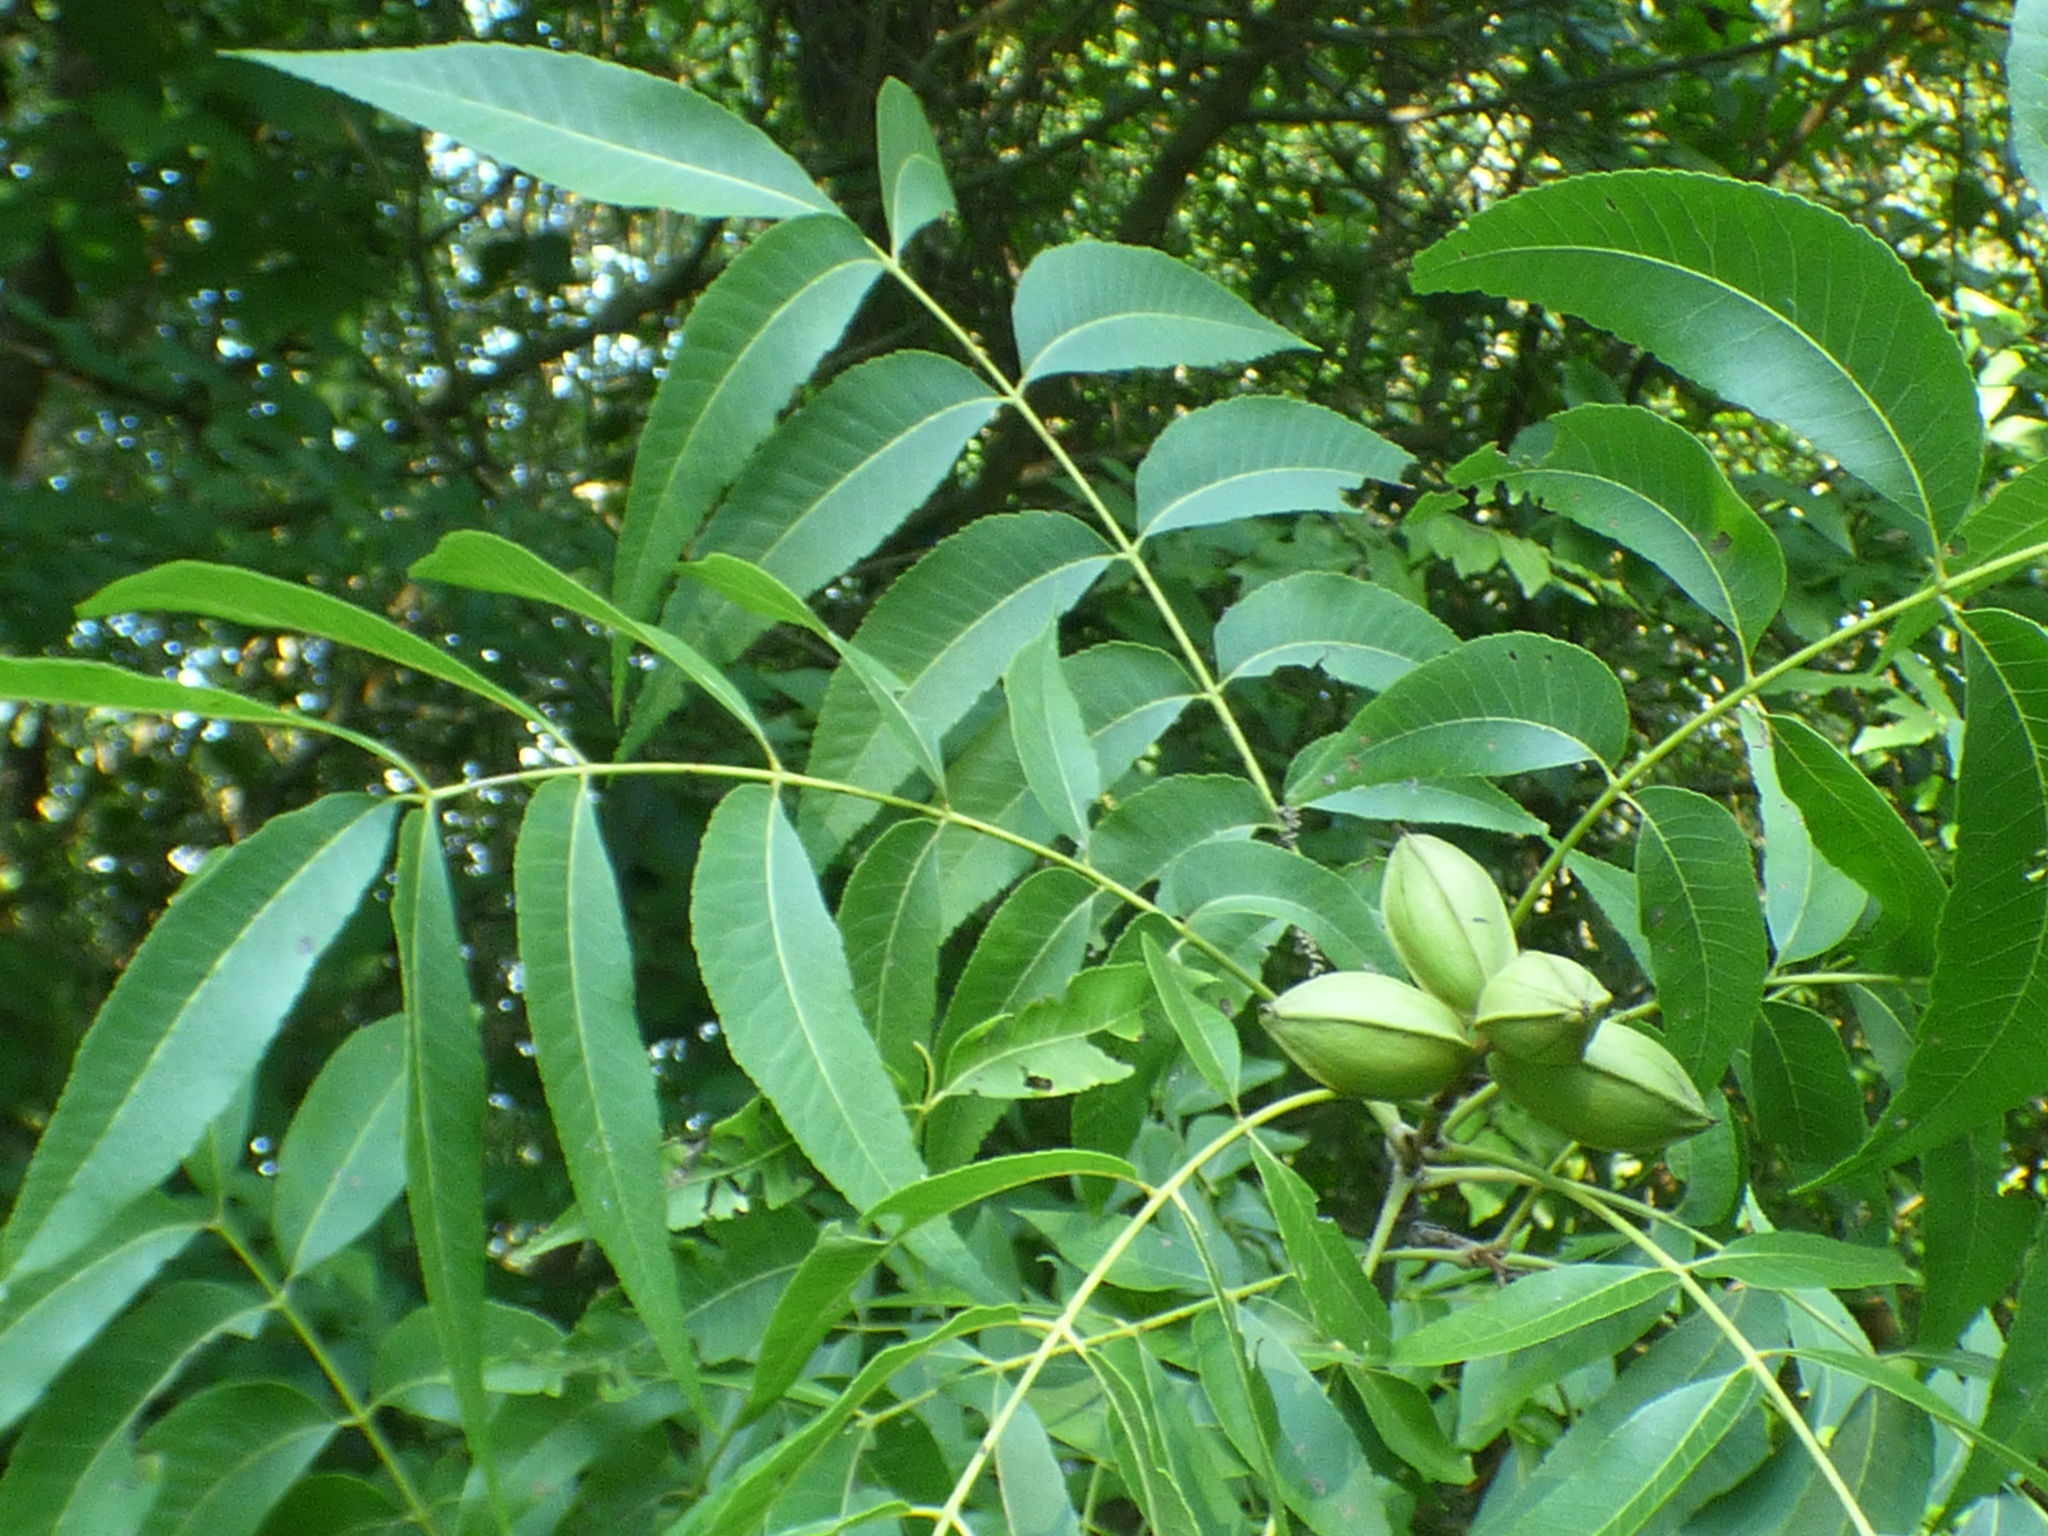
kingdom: Plantae
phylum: Tracheophyta
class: Magnoliopsida
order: Fagales
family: Juglandaceae
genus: Carya
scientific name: Carya illinoinensis
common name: Pecan
